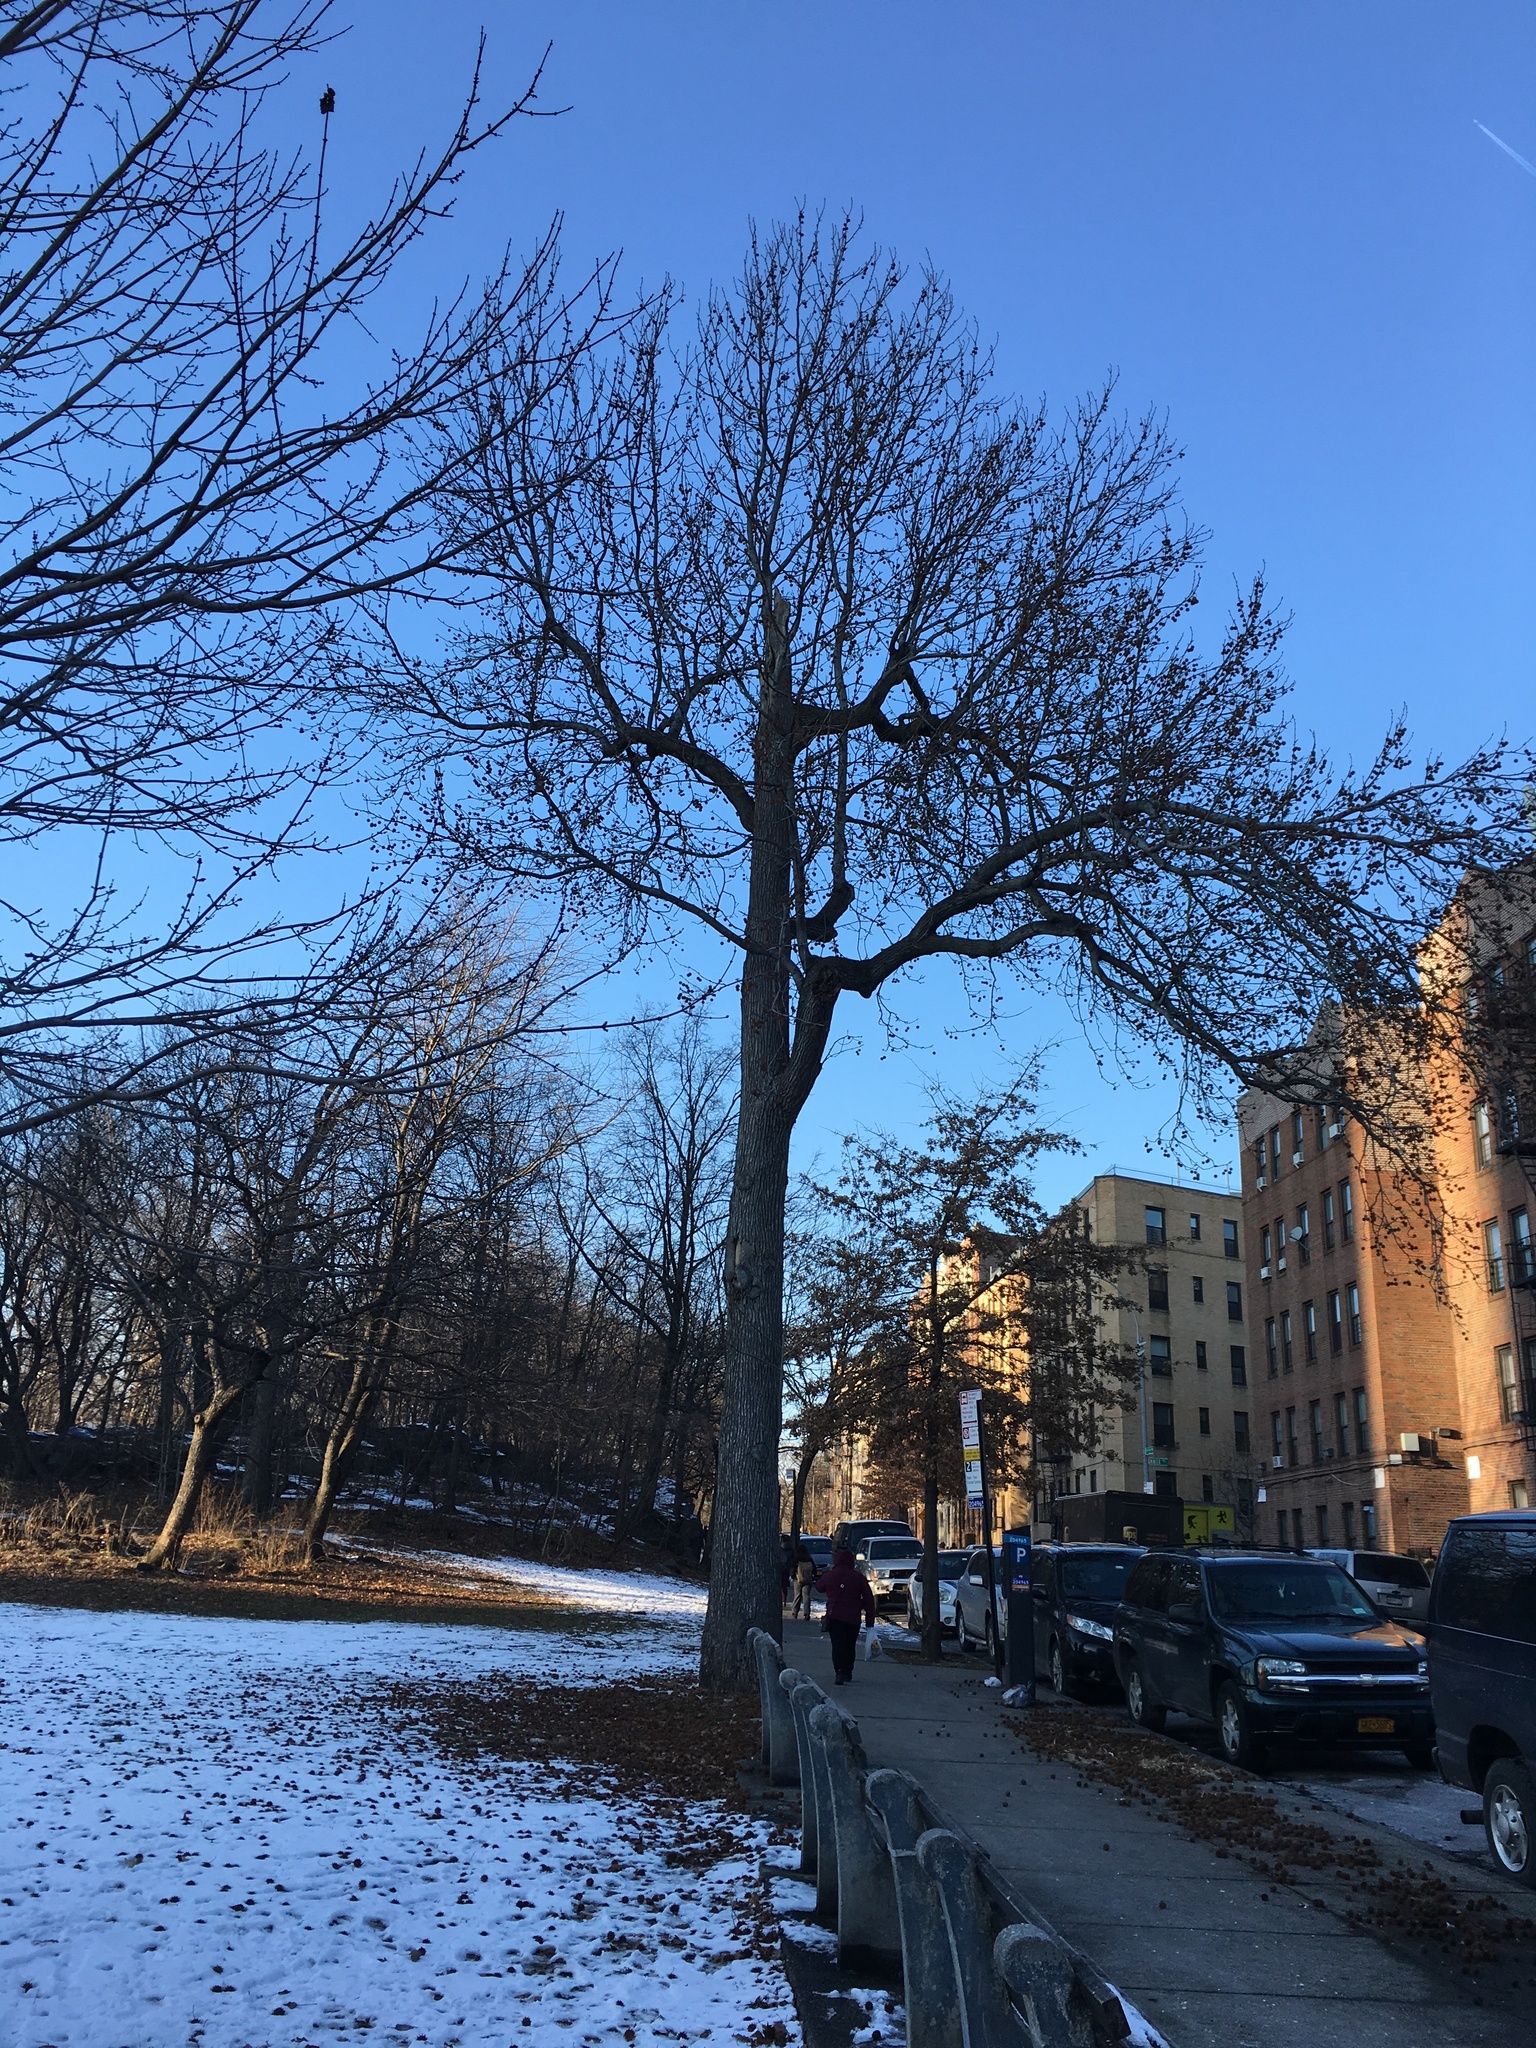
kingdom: Plantae
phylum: Tracheophyta
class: Magnoliopsida
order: Saxifragales
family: Altingiaceae
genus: Liquidambar
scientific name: Liquidambar styraciflua
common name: Sweet gum
